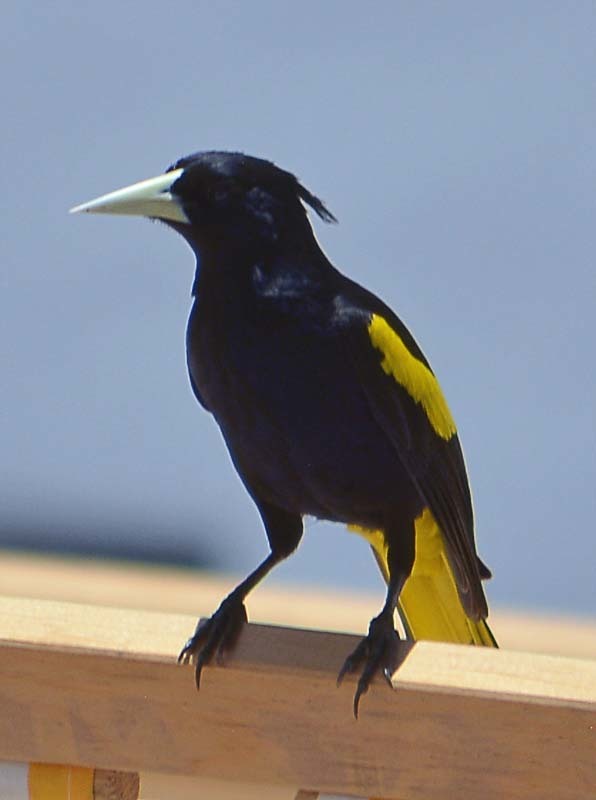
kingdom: Animalia
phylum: Chordata
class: Aves
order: Passeriformes
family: Icteridae
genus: Cacicus
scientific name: Cacicus melanicterus
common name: Yellow-winged cacique
